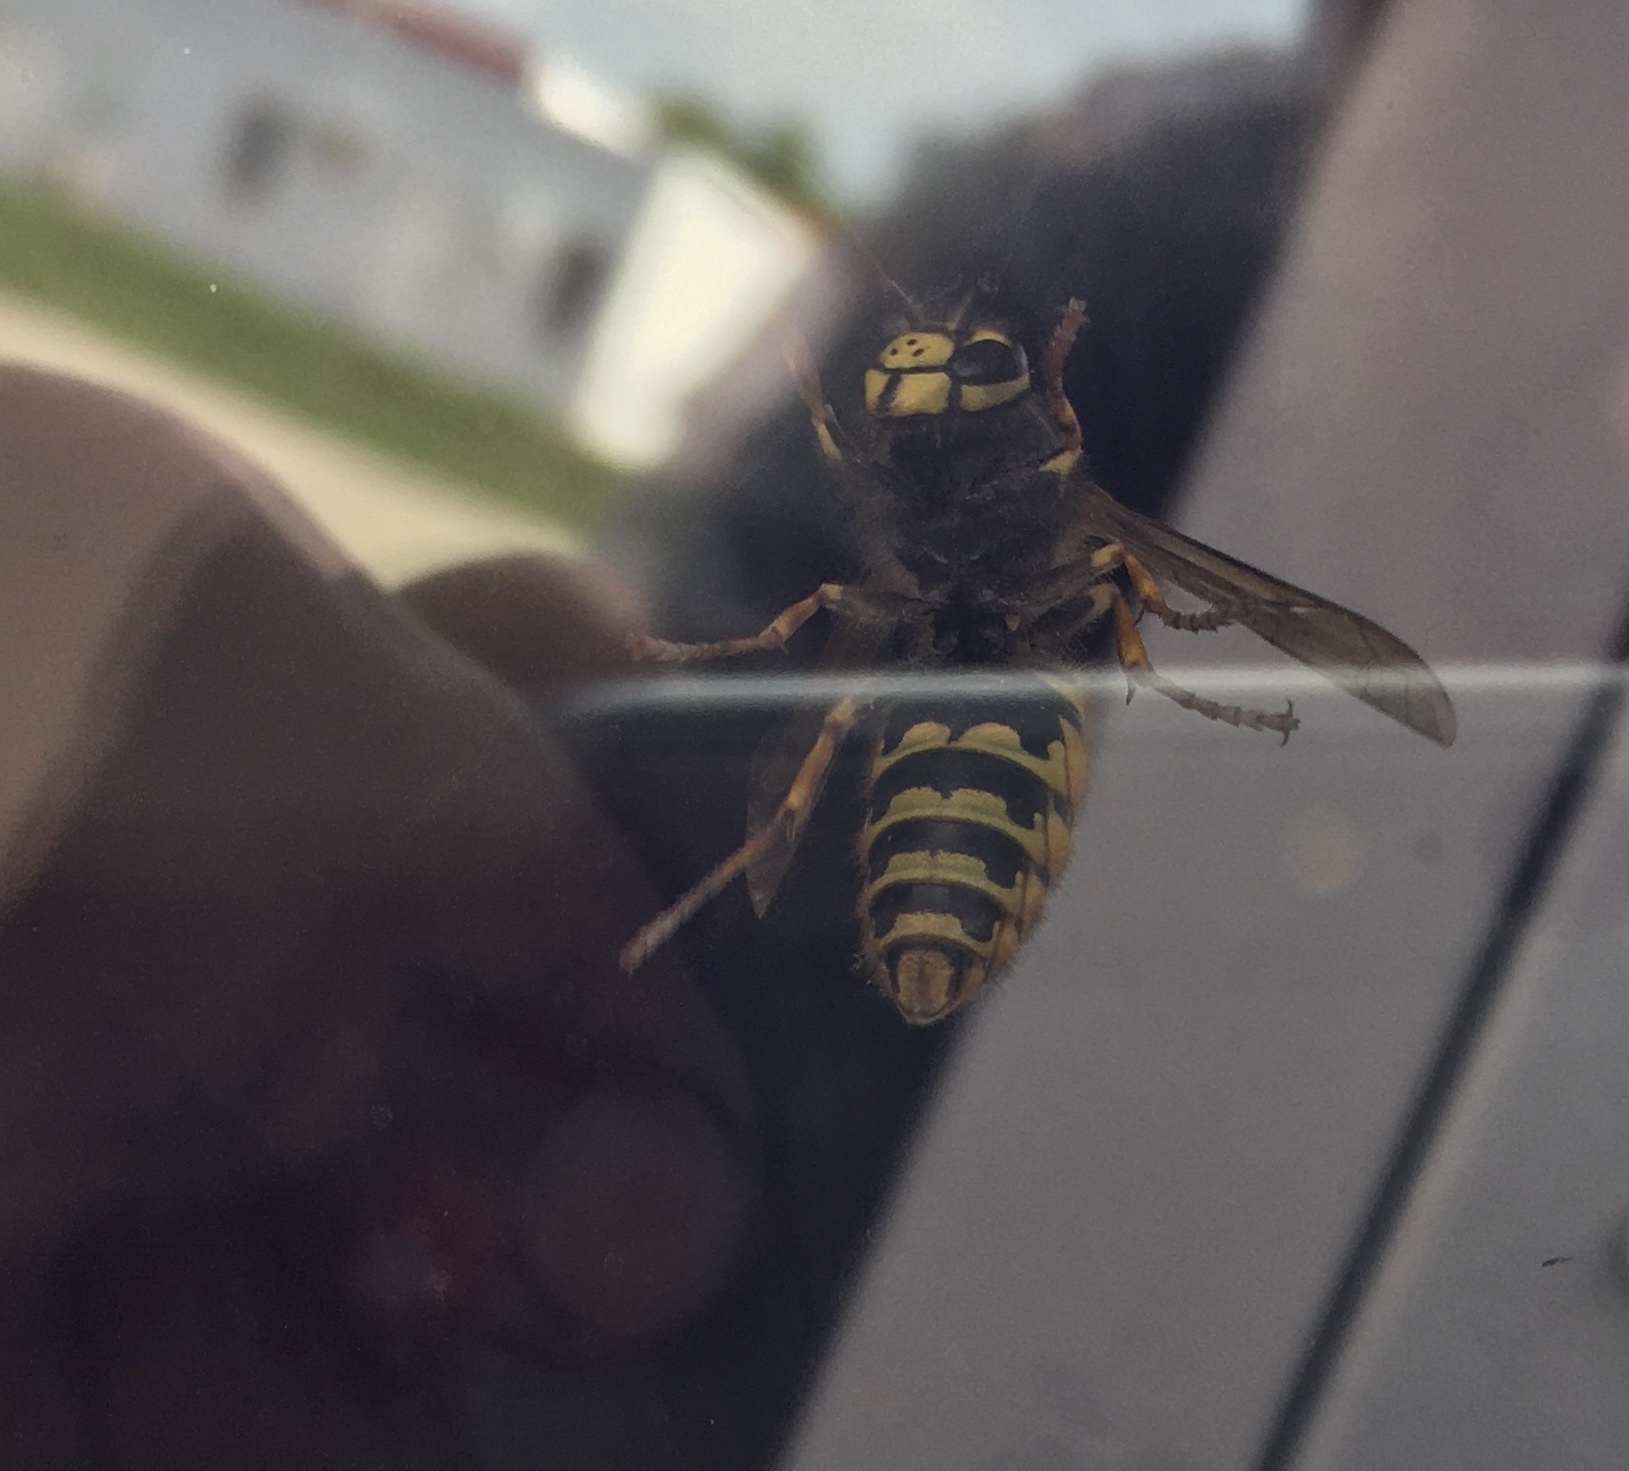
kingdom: Animalia
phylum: Arthropoda
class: Insecta
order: Hymenoptera
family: Vespidae
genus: Vespula
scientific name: Vespula germanica
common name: German wasp
